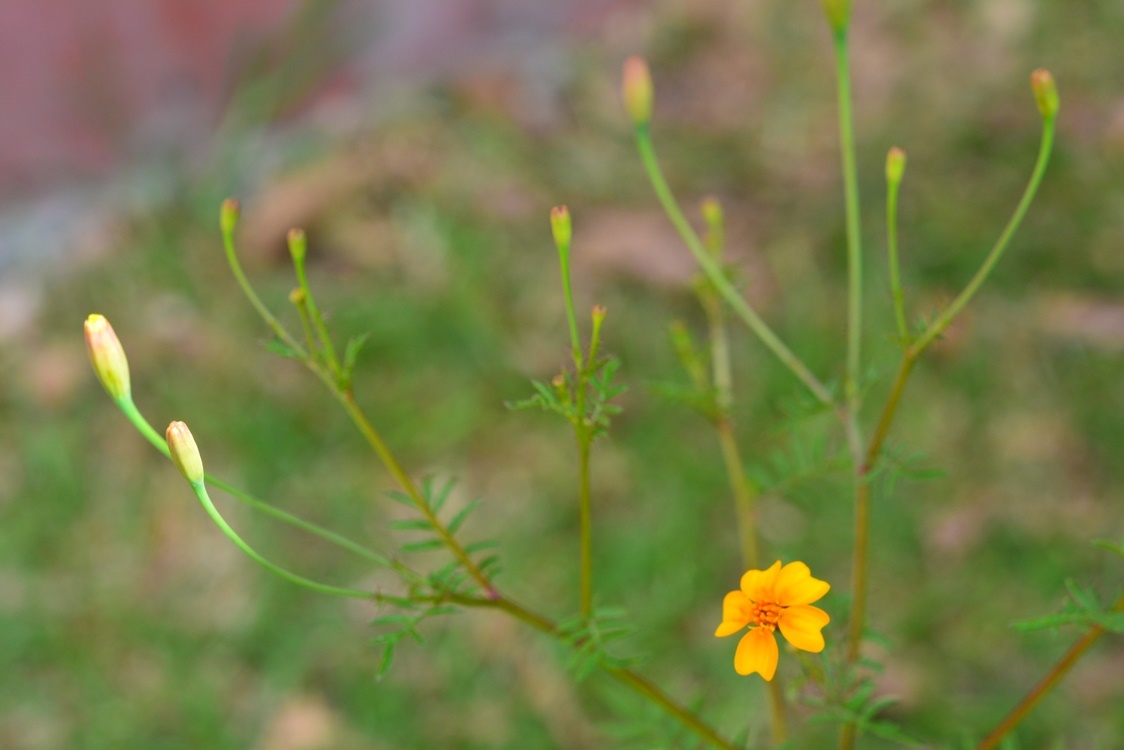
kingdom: Plantae
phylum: Tracheophyta
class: Magnoliopsida
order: Asterales
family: Asteraceae
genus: Tagetes
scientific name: Tagetes tenuifolia
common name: Signet marigold
